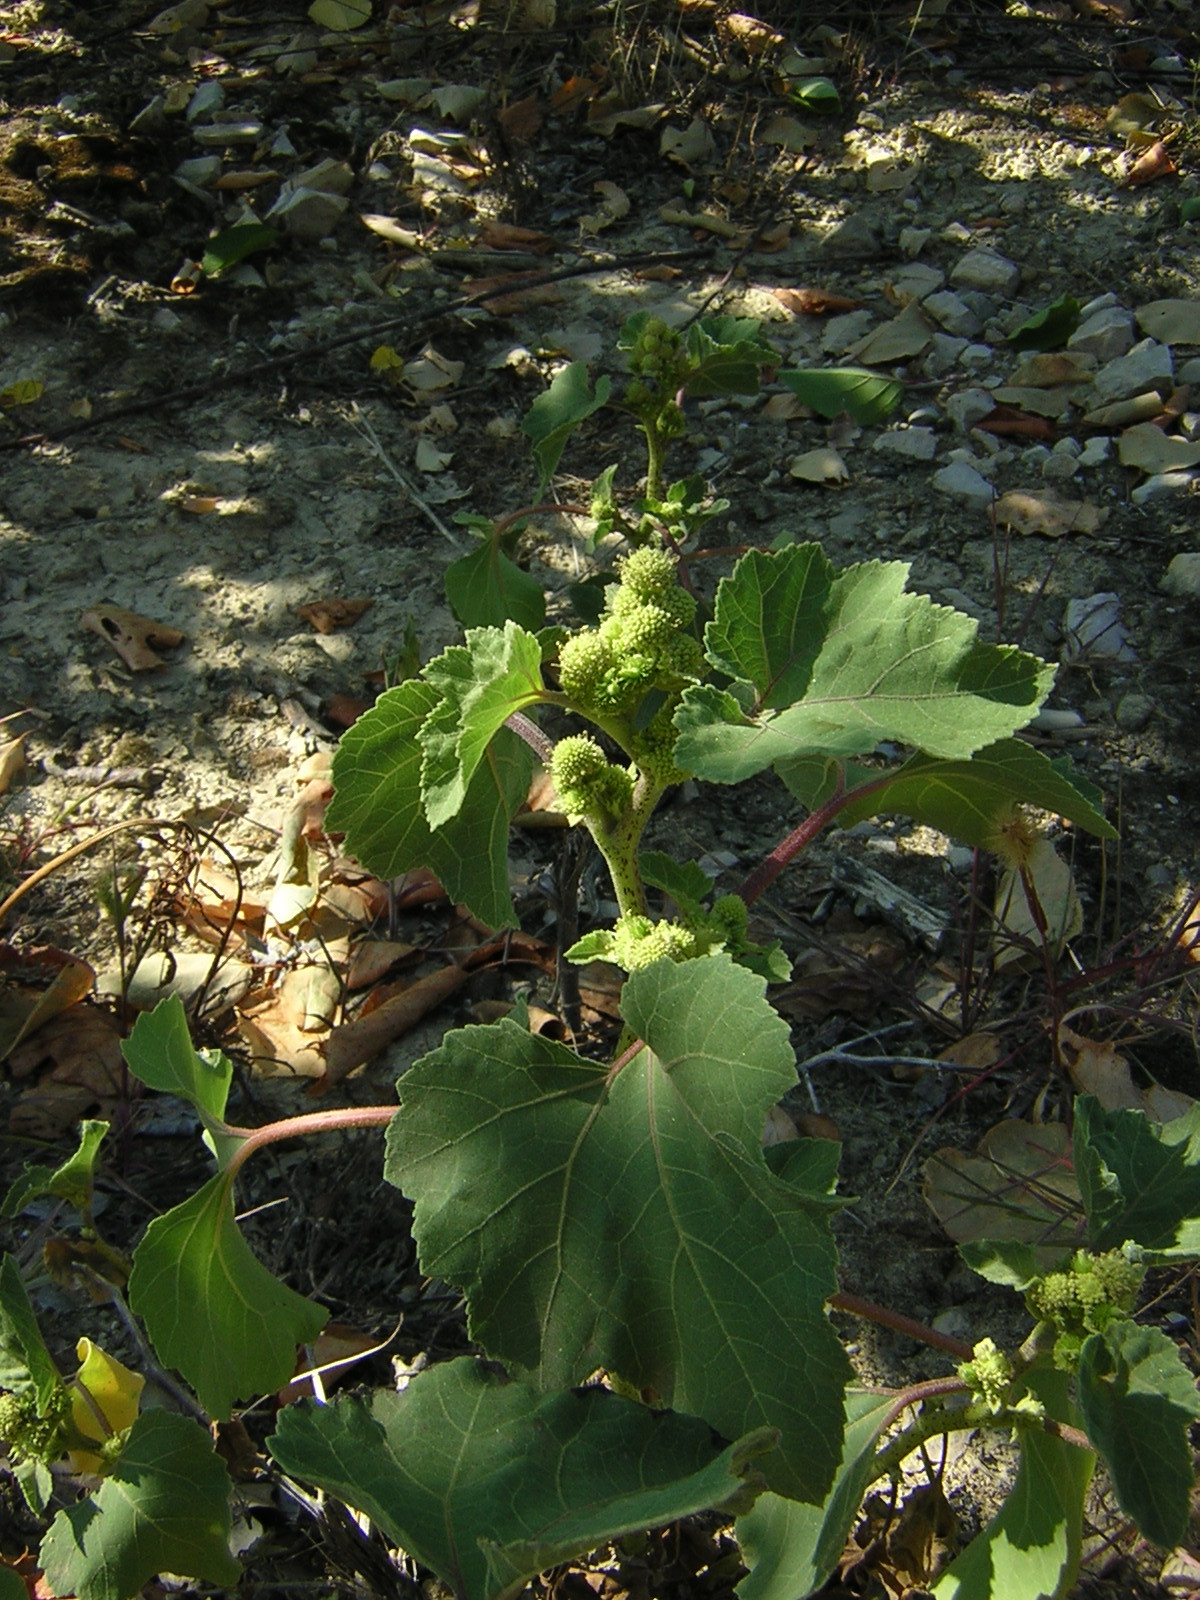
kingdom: Plantae
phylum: Tracheophyta
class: Magnoliopsida
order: Asterales
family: Asteraceae
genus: Xanthium
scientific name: Xanthium strumarium
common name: Rough cocklebur
